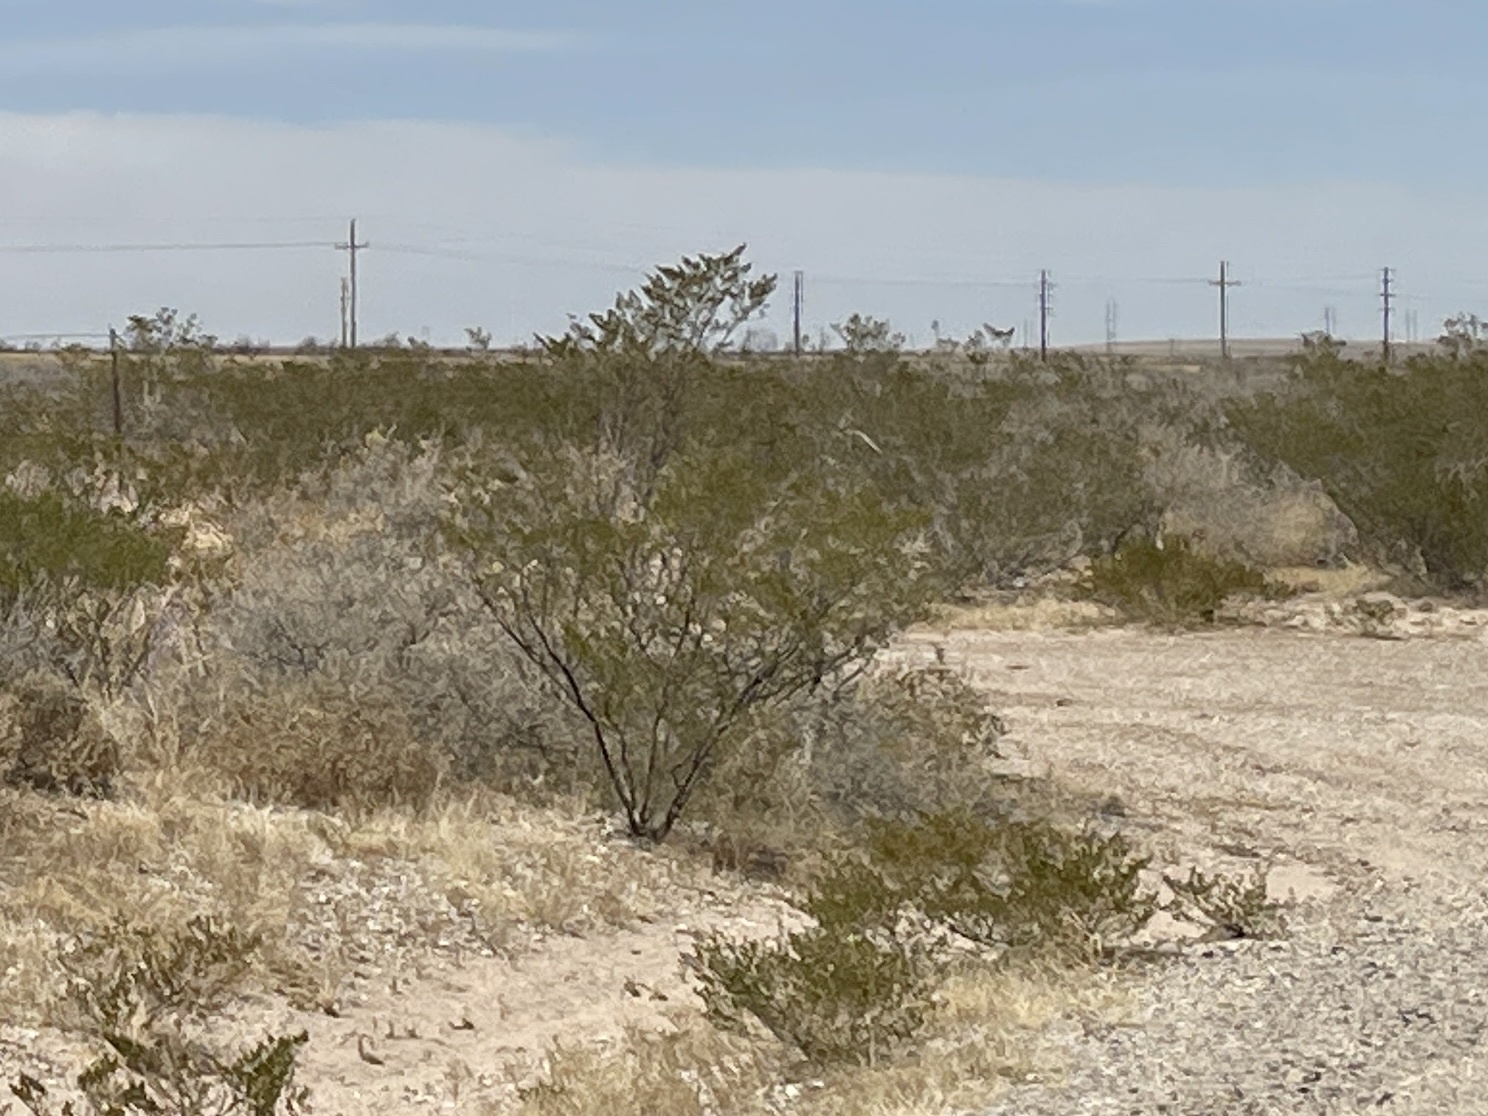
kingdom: Plantae
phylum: Tracheophyta
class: Magnoliopsida
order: Zygophyllales
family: Zygophyllaceae
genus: Larrea
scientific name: Larrea tridentata
